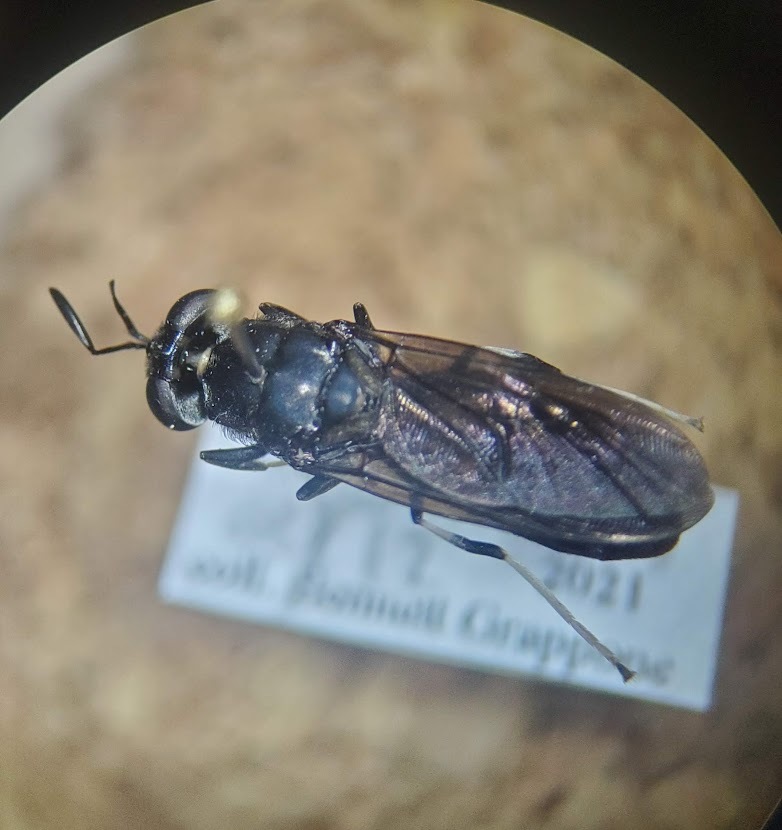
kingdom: Animalia
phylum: Arthropoda
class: Insecta
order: Diptera
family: Stratiomyidae
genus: Hermetia
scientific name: Hermetia illucens
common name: Black soldier fly
